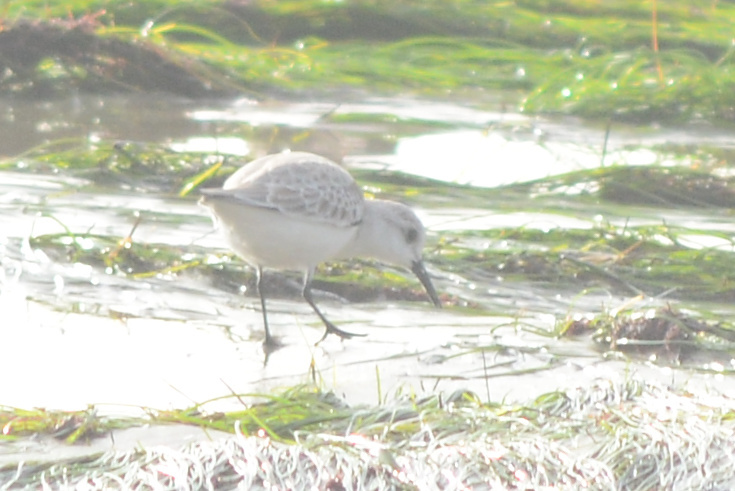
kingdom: Animalia
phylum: Chordata
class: Aves
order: Charadriiformes
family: Scolopacidae
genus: Calidris
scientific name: Calidris alba
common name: Sanderling
